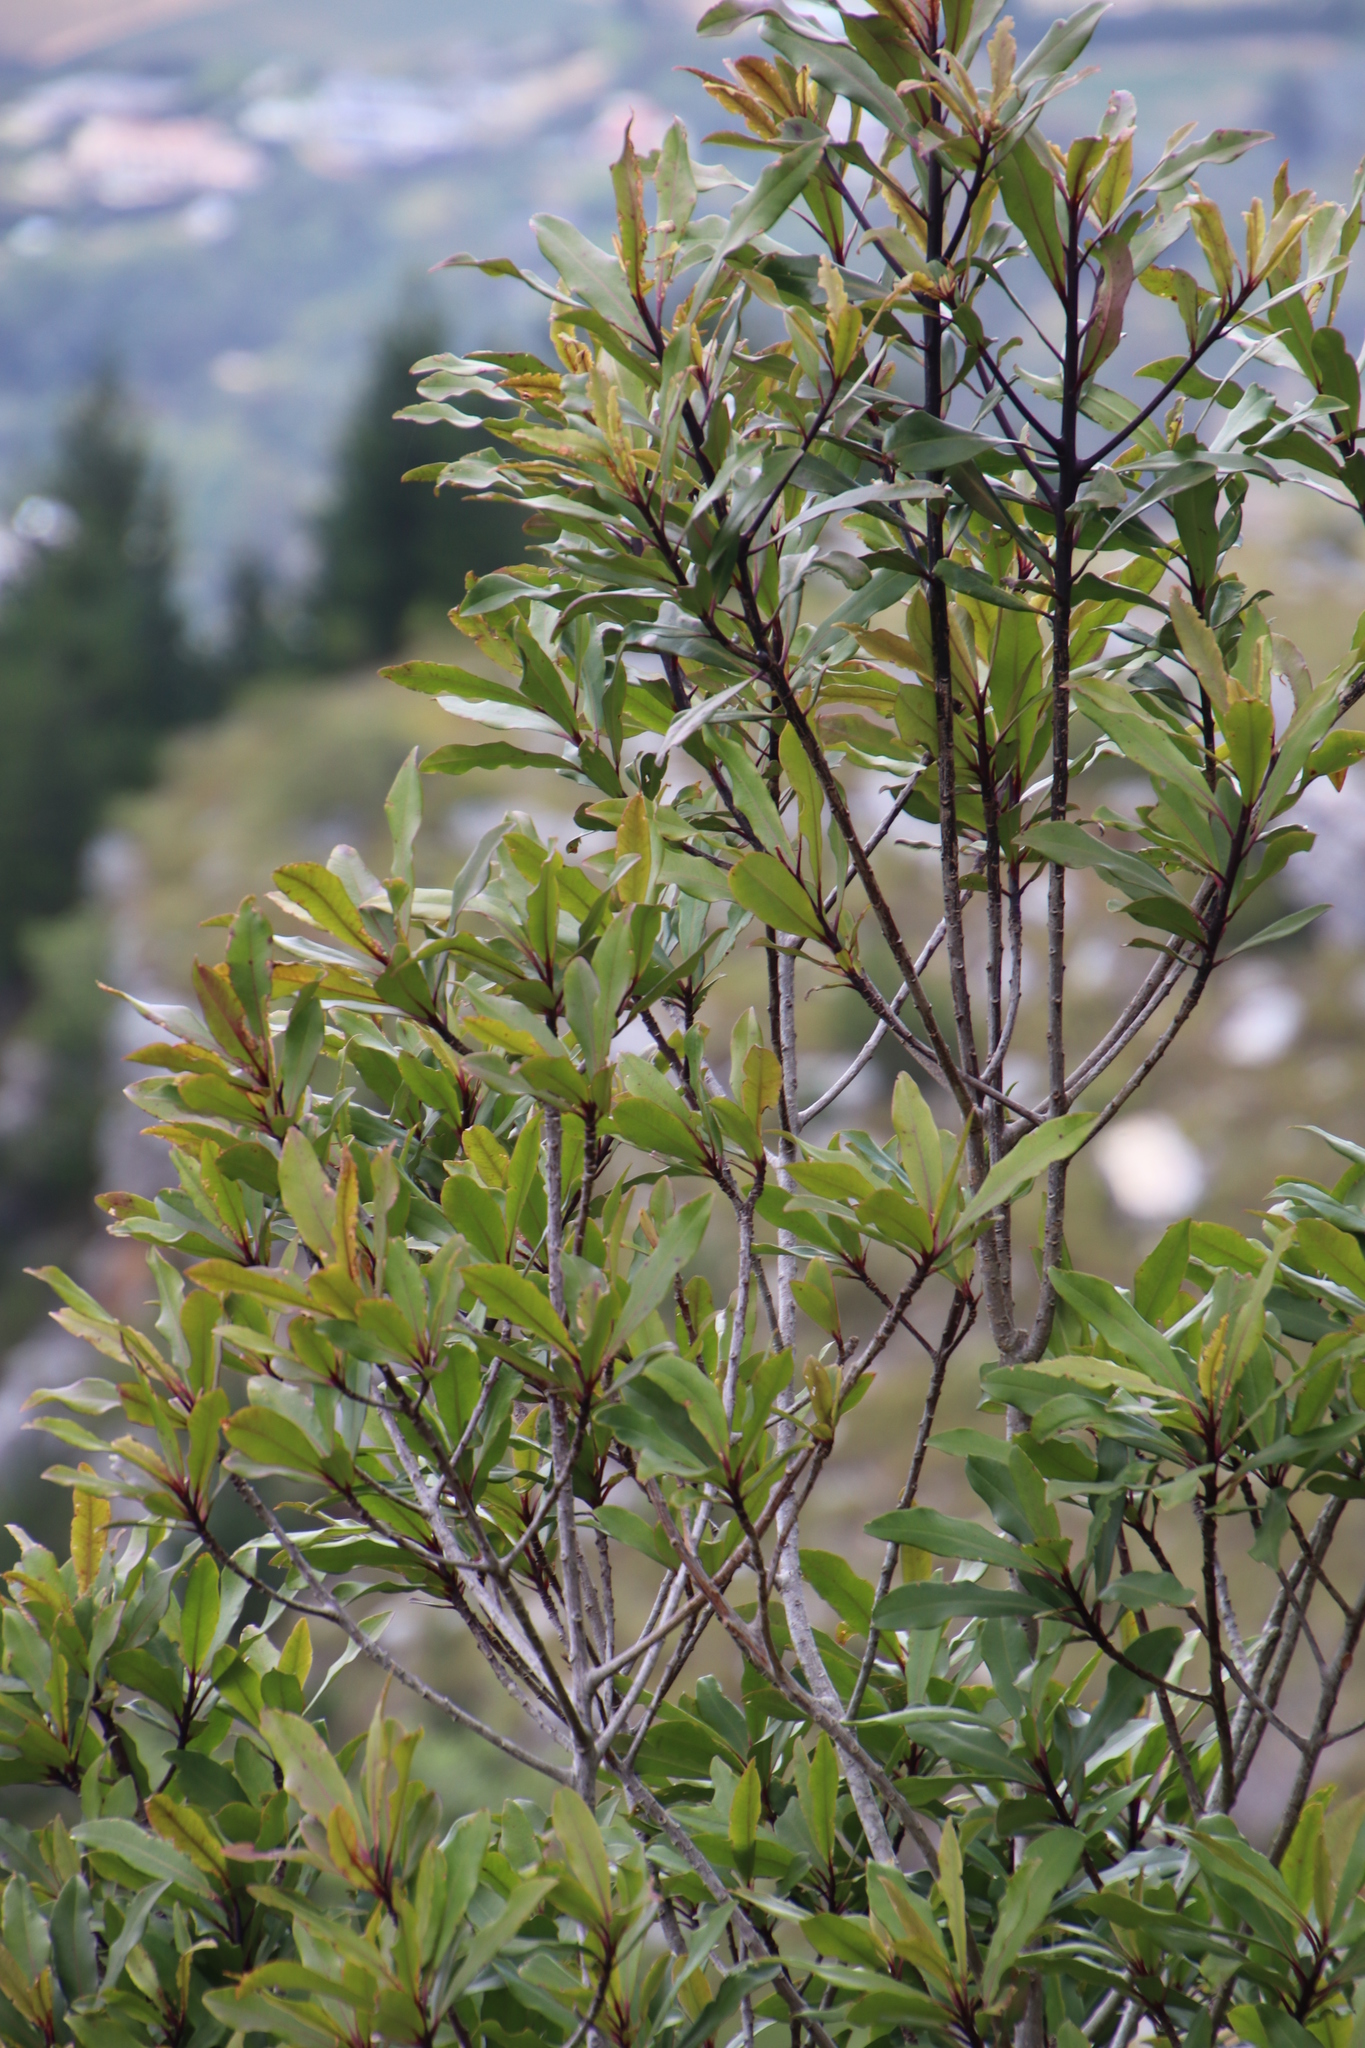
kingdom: Plantae
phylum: Tracheophyta
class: Magnoliopsida
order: Ericales
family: Primulaceae
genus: Myrsine
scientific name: Myrsine melanophloeos
